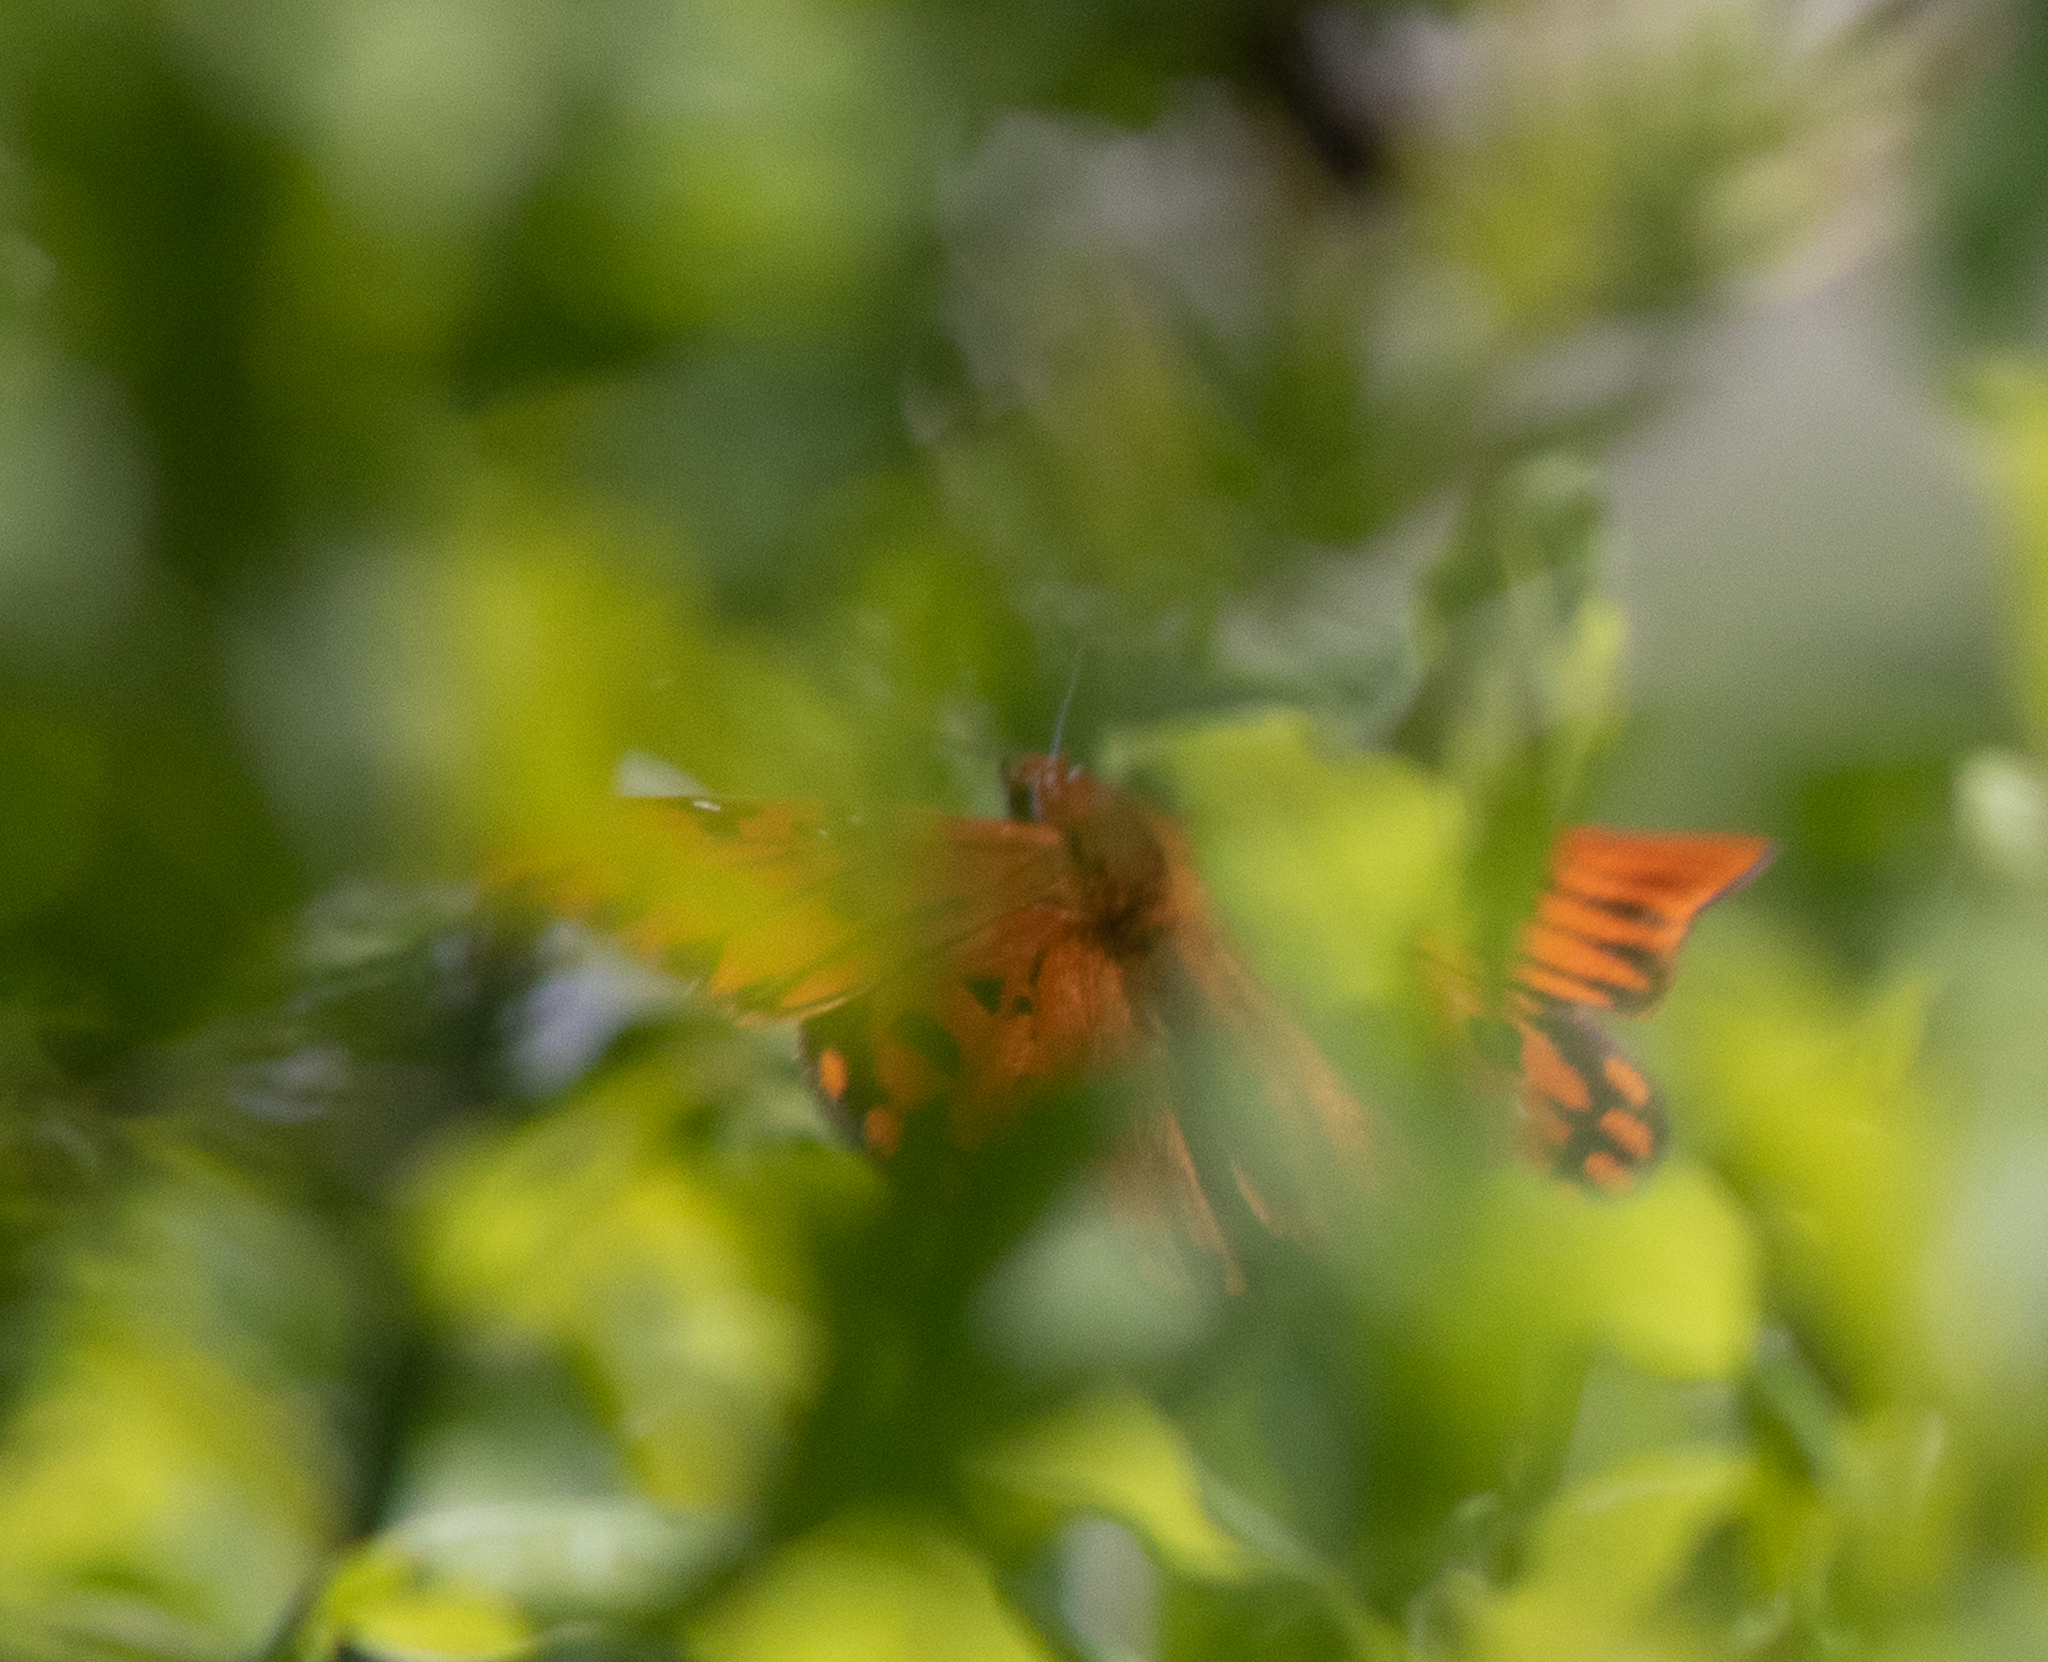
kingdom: Animalia
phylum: Arthropoda
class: Insecta
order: Lepidoptera
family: Nymphalidae
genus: Dione
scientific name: Dione vanillae
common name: Gulf fritillary
